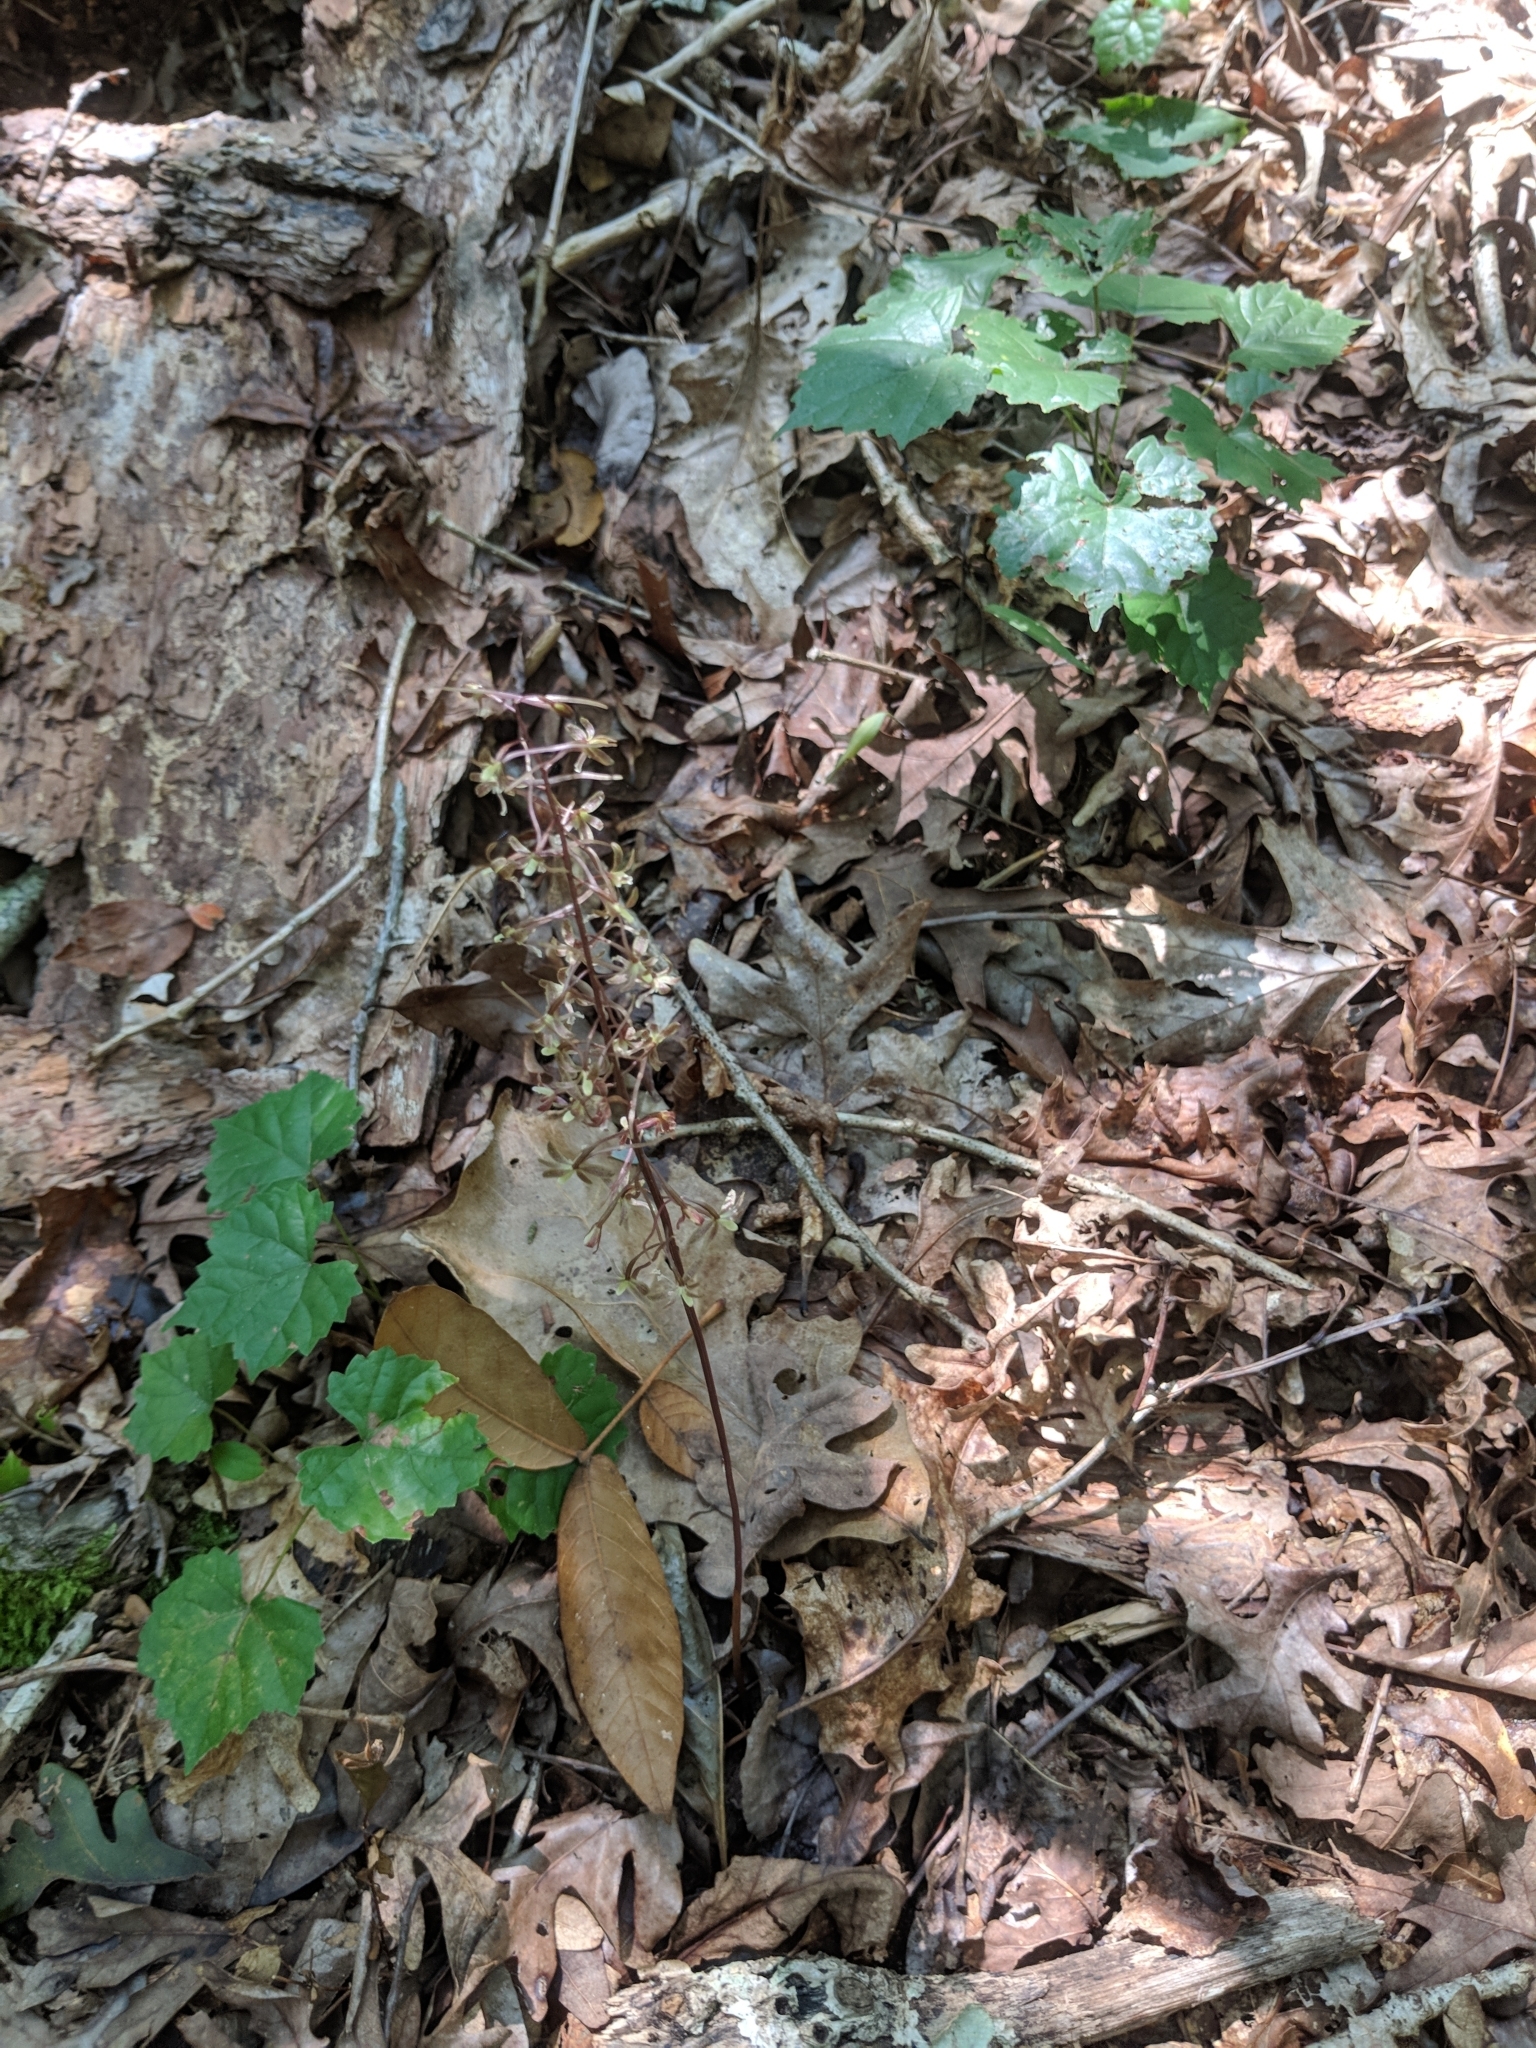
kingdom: Plantae
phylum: Tracheophyta
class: Liliopsida
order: Asparagales
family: Orchidaceae
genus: Tipularia
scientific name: Tipularia discolor
